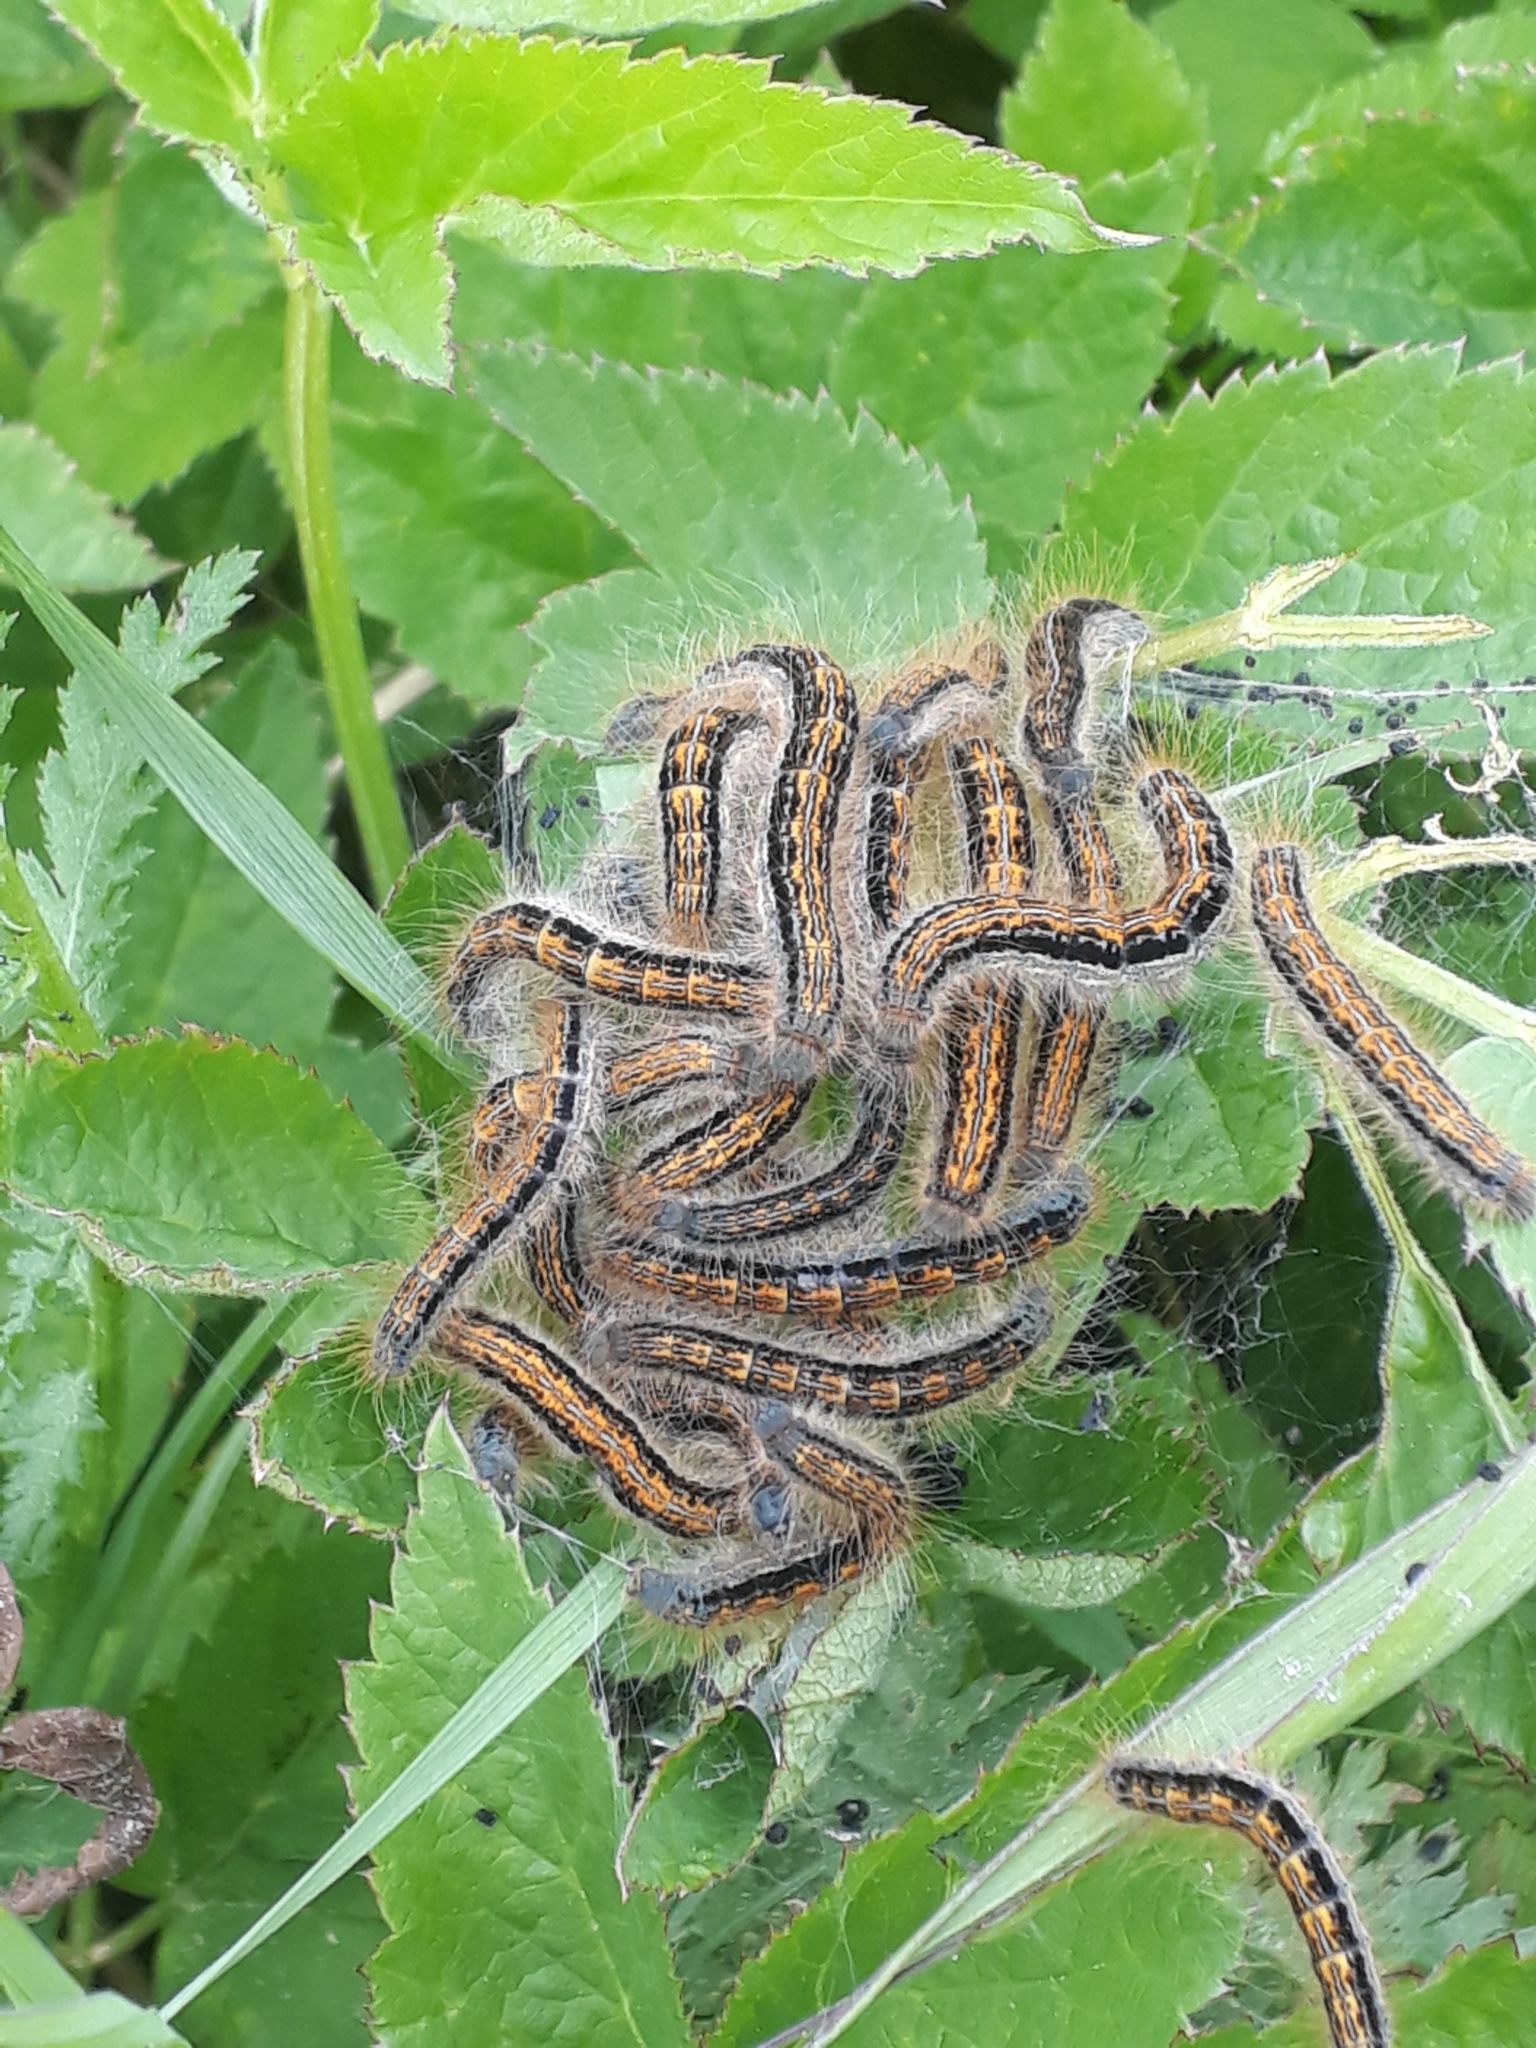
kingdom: Animalia
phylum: Arthropoda
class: Insecta
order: Lepidoptera
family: Lasiocampidae
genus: Malacosoma
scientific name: Malacosoma castrense
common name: Ground lackey
